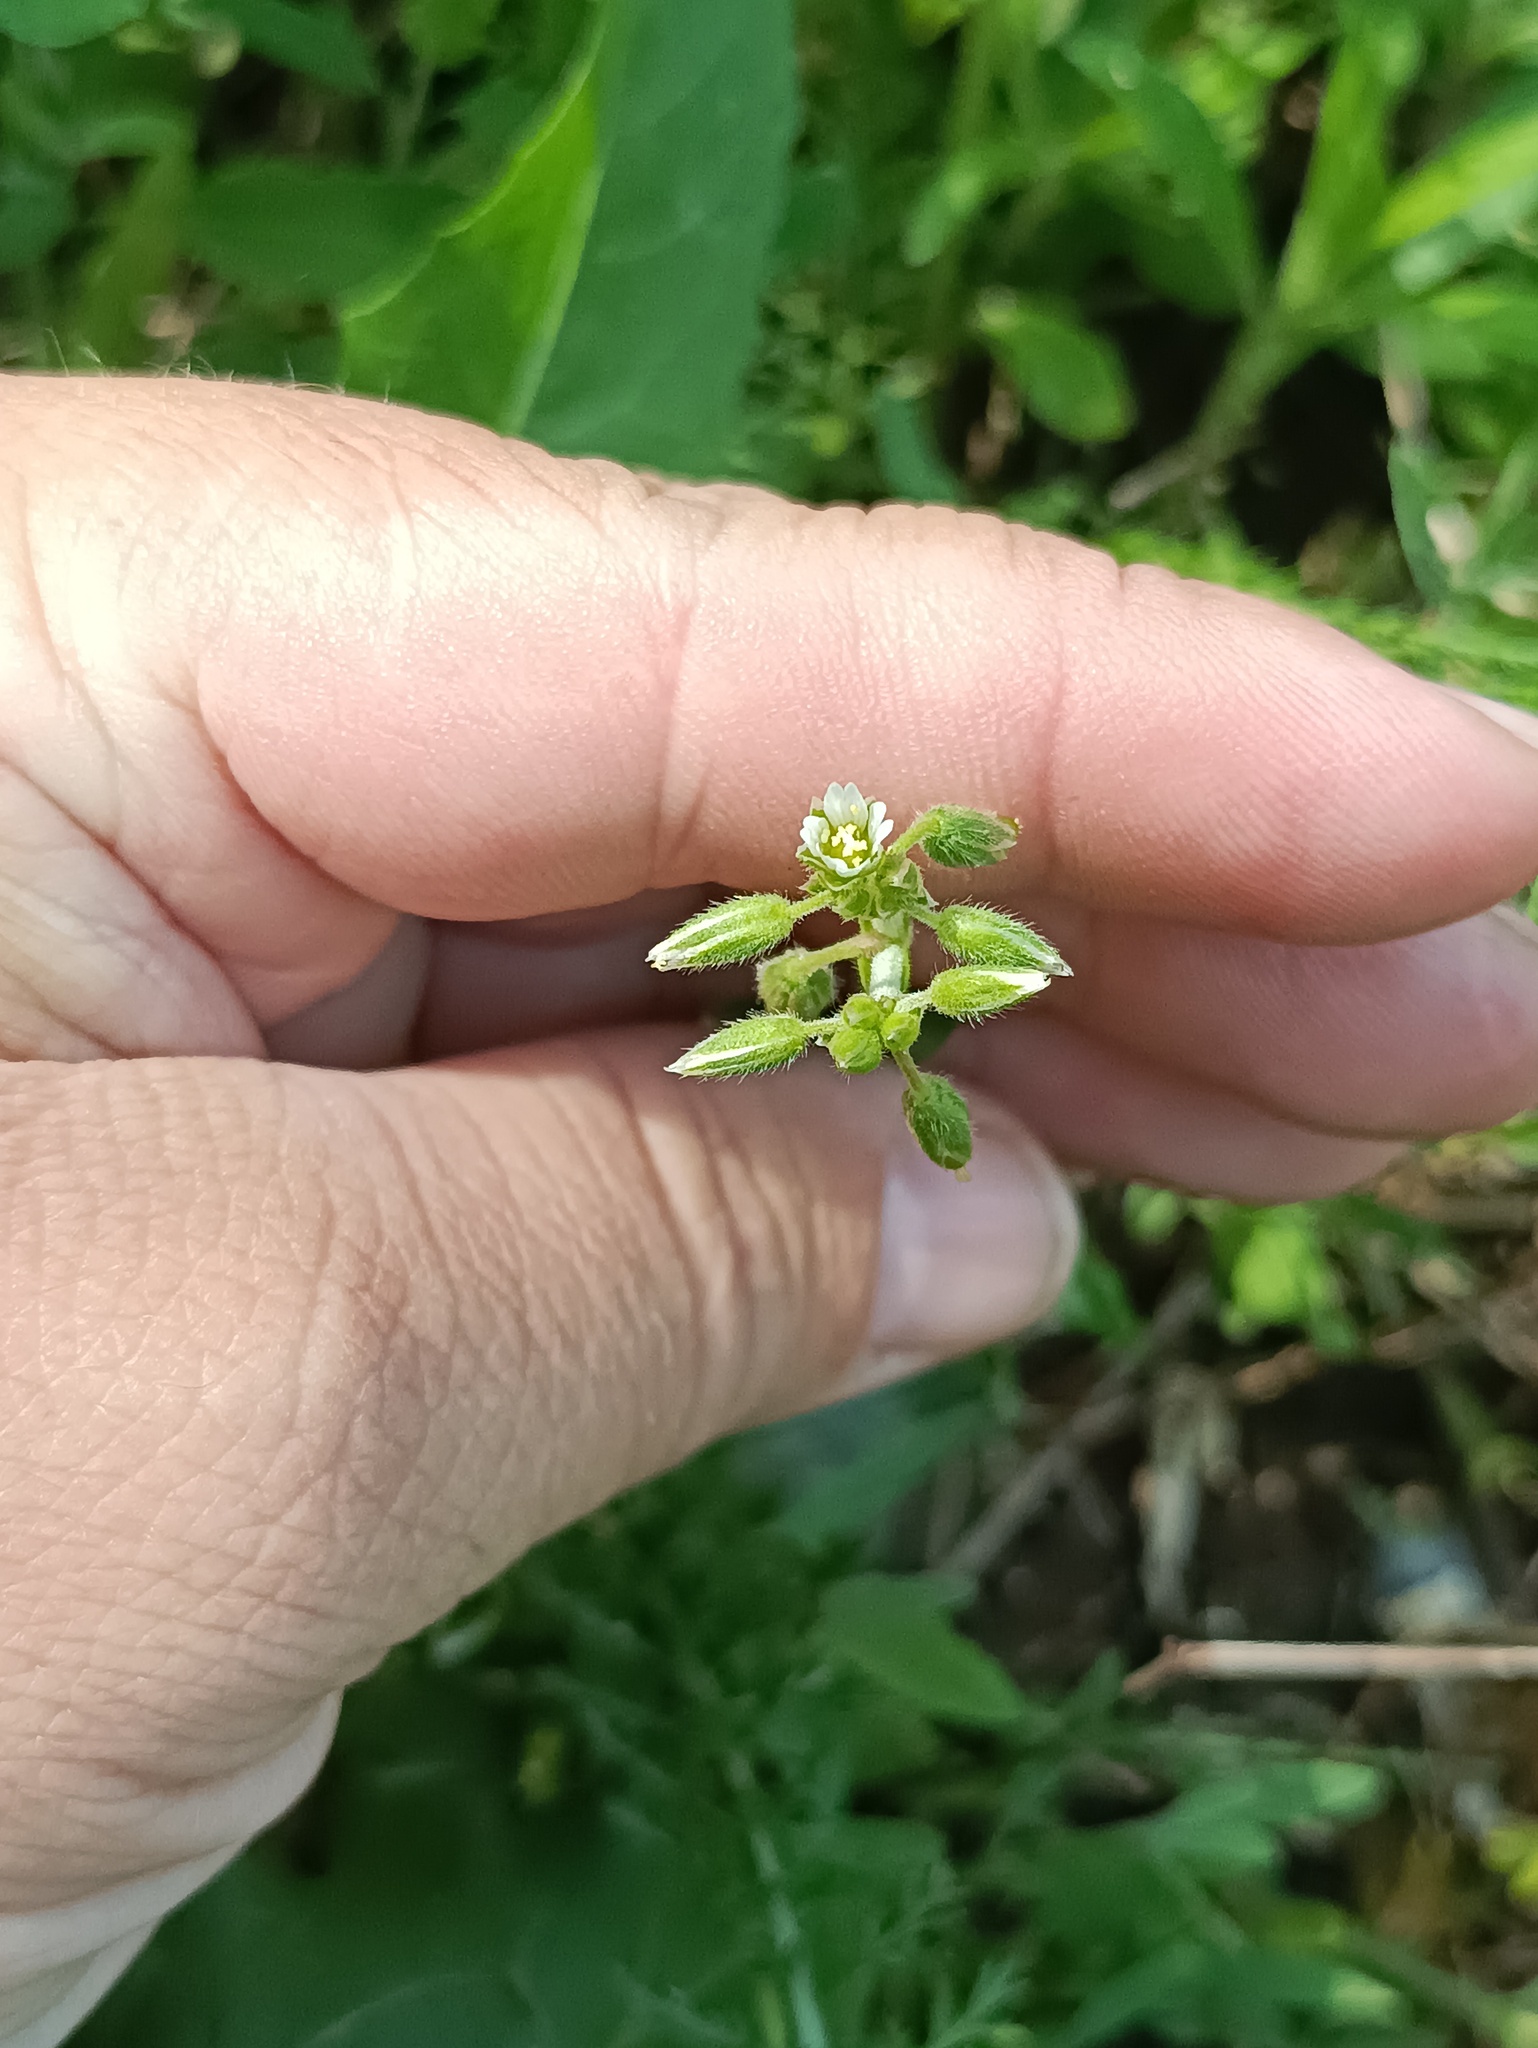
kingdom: Plantae
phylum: Tracheophyta
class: Magnoliopsida
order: Caryophyllales
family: Caryophyllaceae
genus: Cerastium
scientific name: Cerastium holosteoides
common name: Big chickweed
